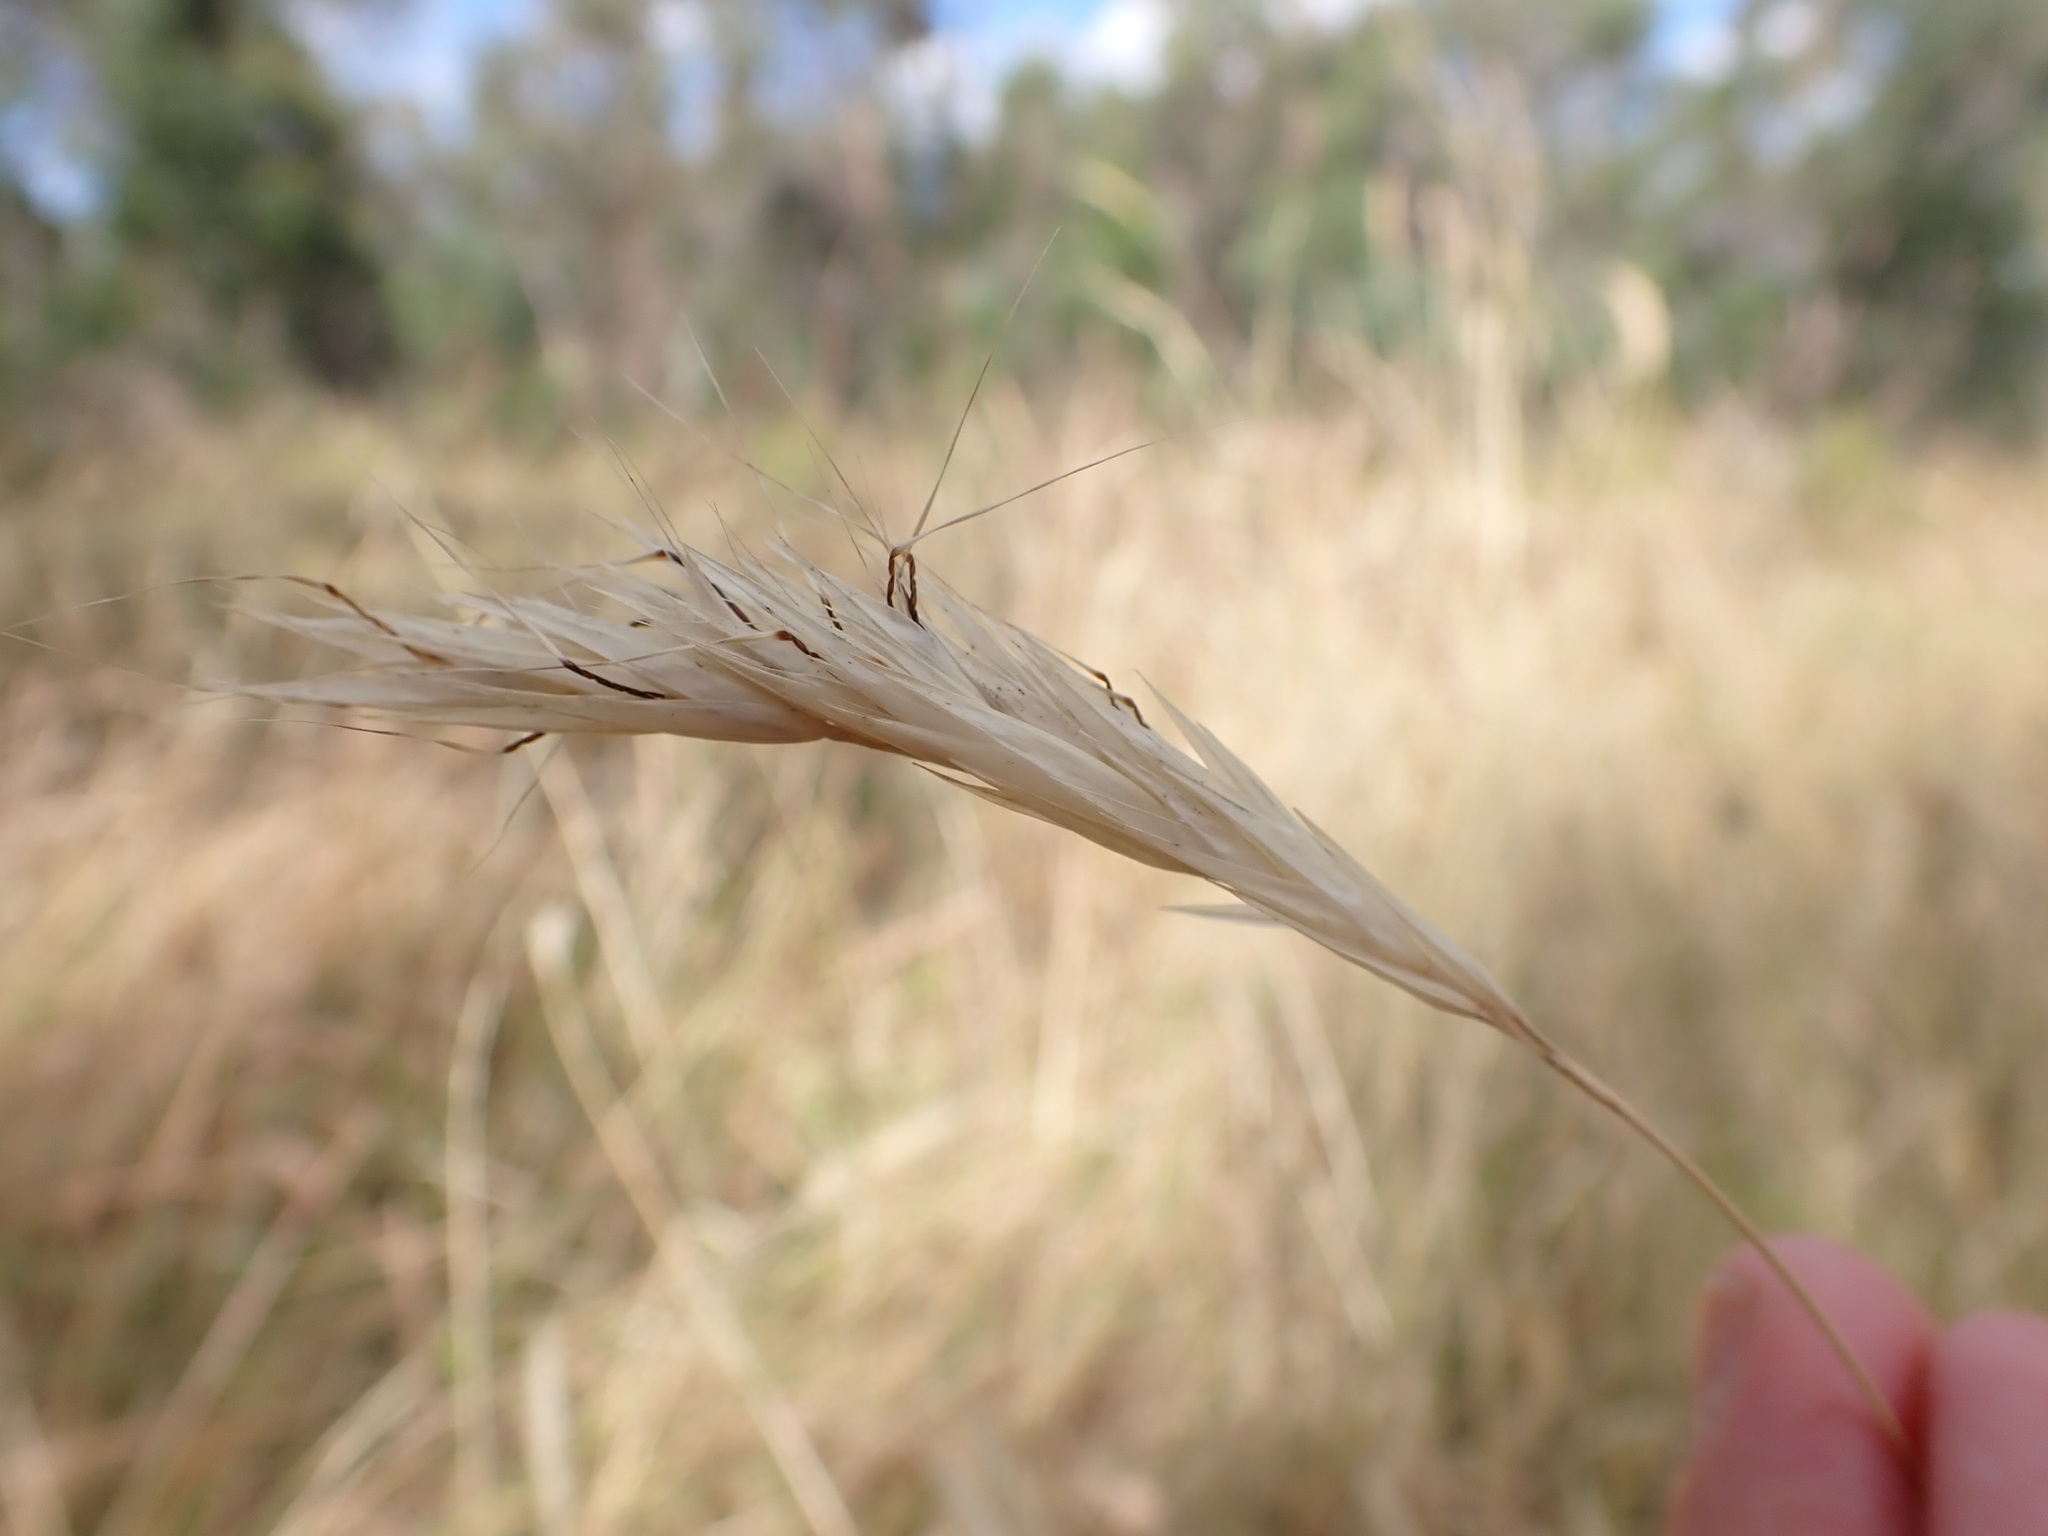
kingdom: Plantae
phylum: Tracheophyta
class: Liliopsida
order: Poales
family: Poaceae
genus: Rytidosperma
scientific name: Rytidosperma pilosum
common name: Hairy wallaby grass
